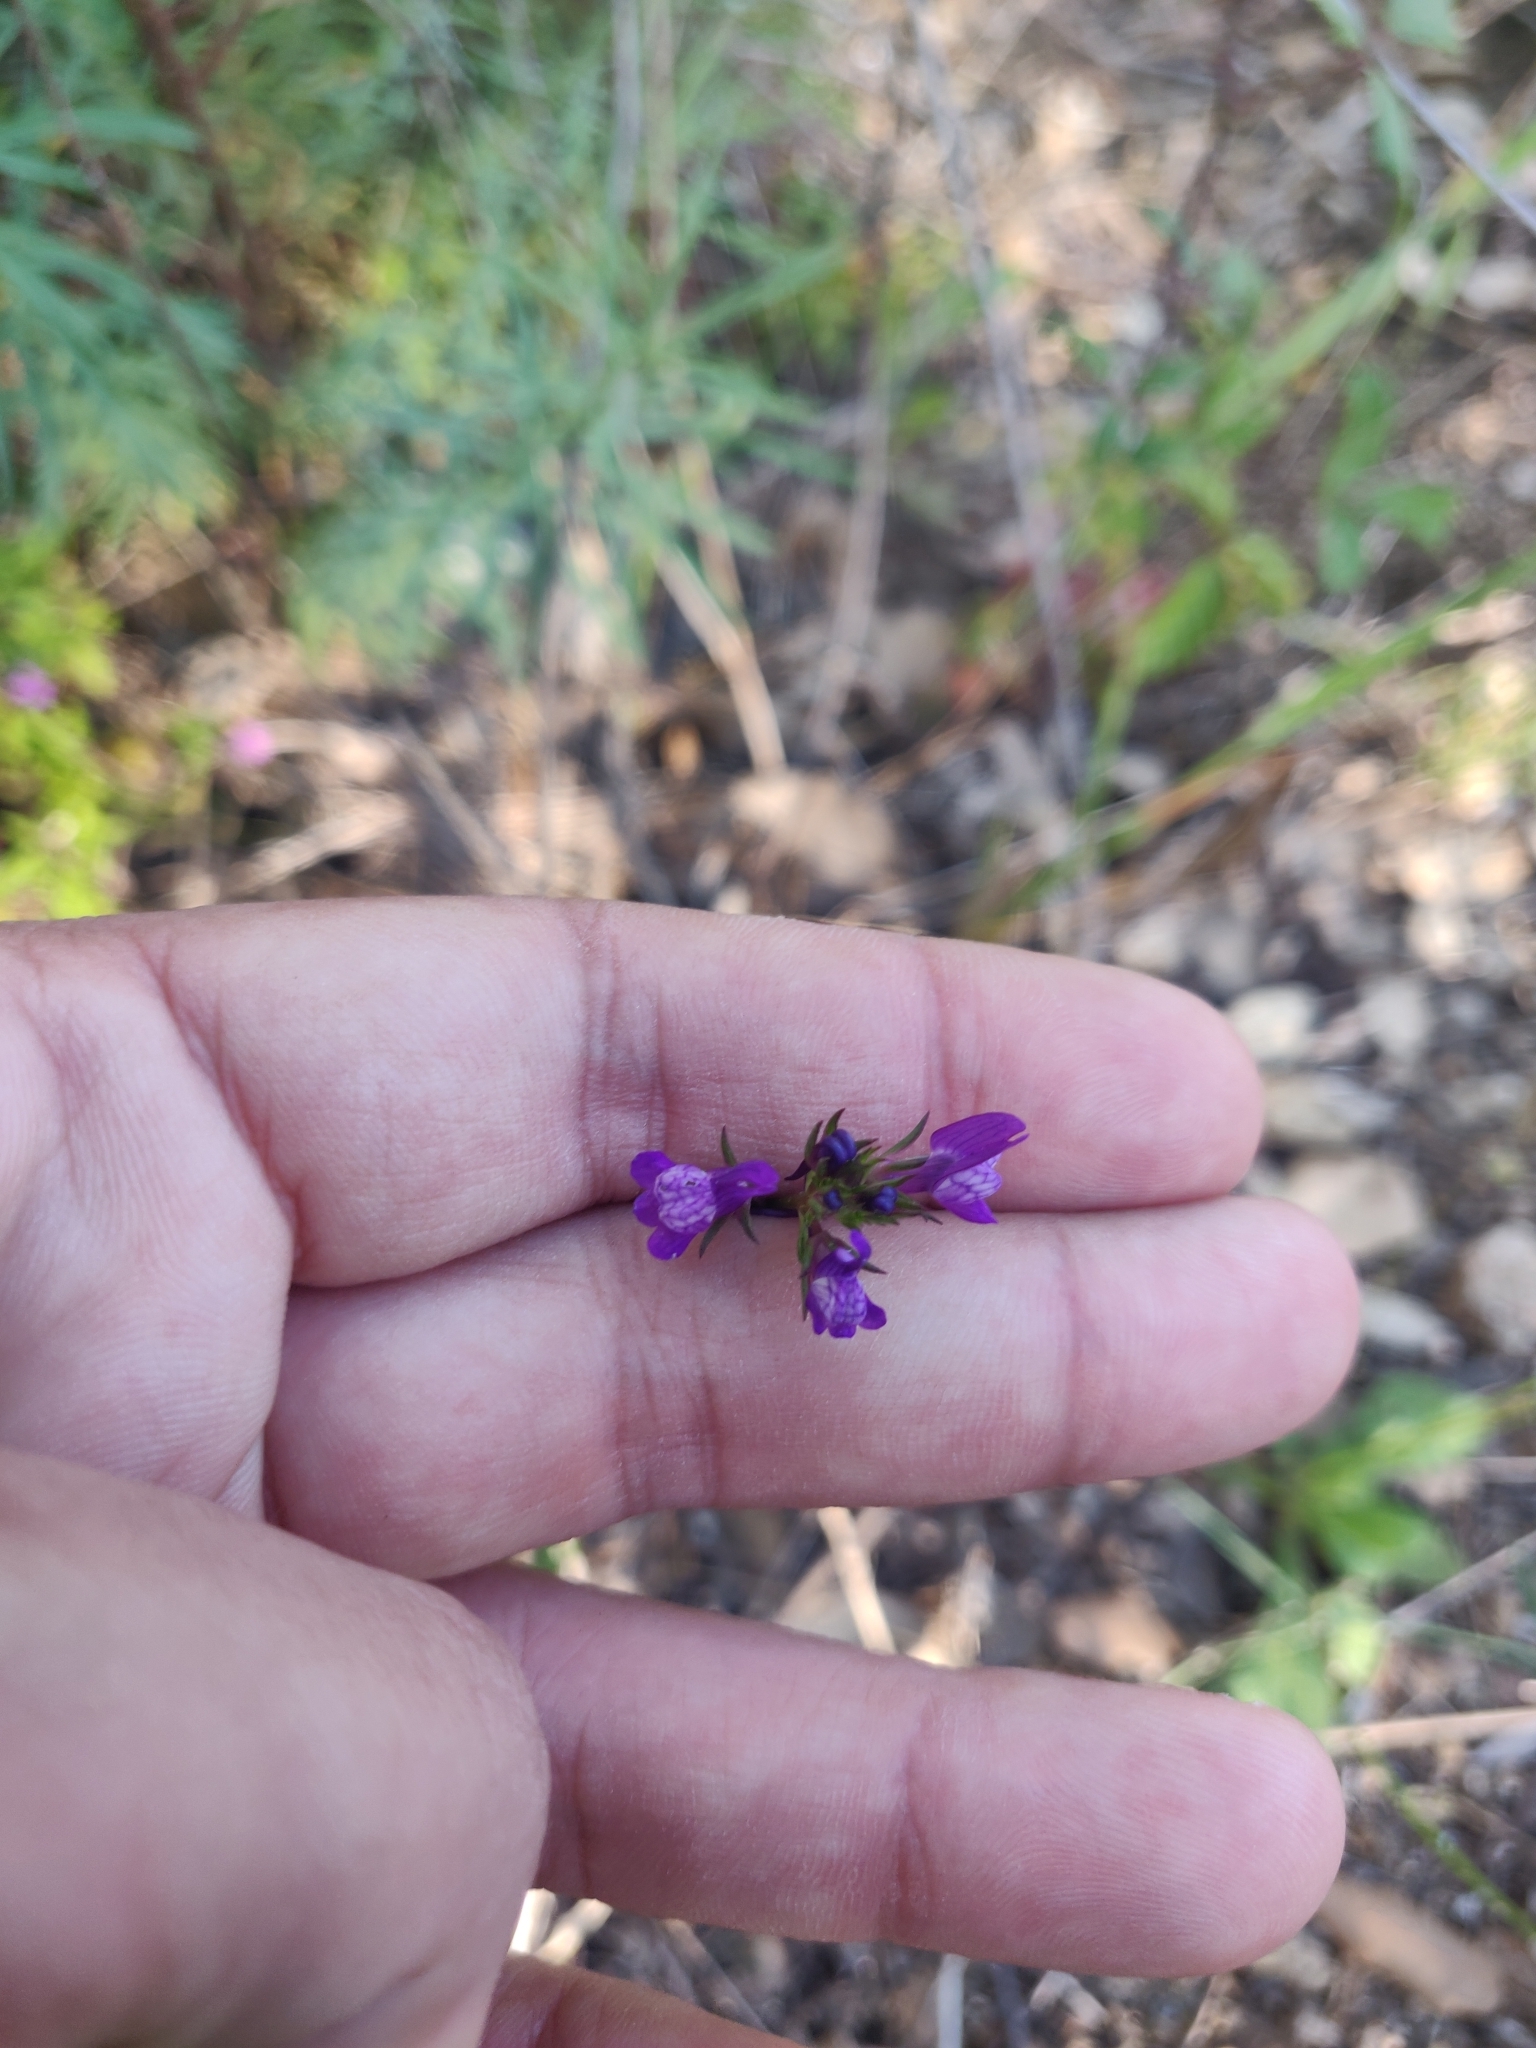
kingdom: Plantae
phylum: Tracheophyta
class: Magnoliopsida
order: Lamiales
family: Plantaginaceae
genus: Linaria
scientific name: Linaria pelisseriana
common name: Jersey toadflax
